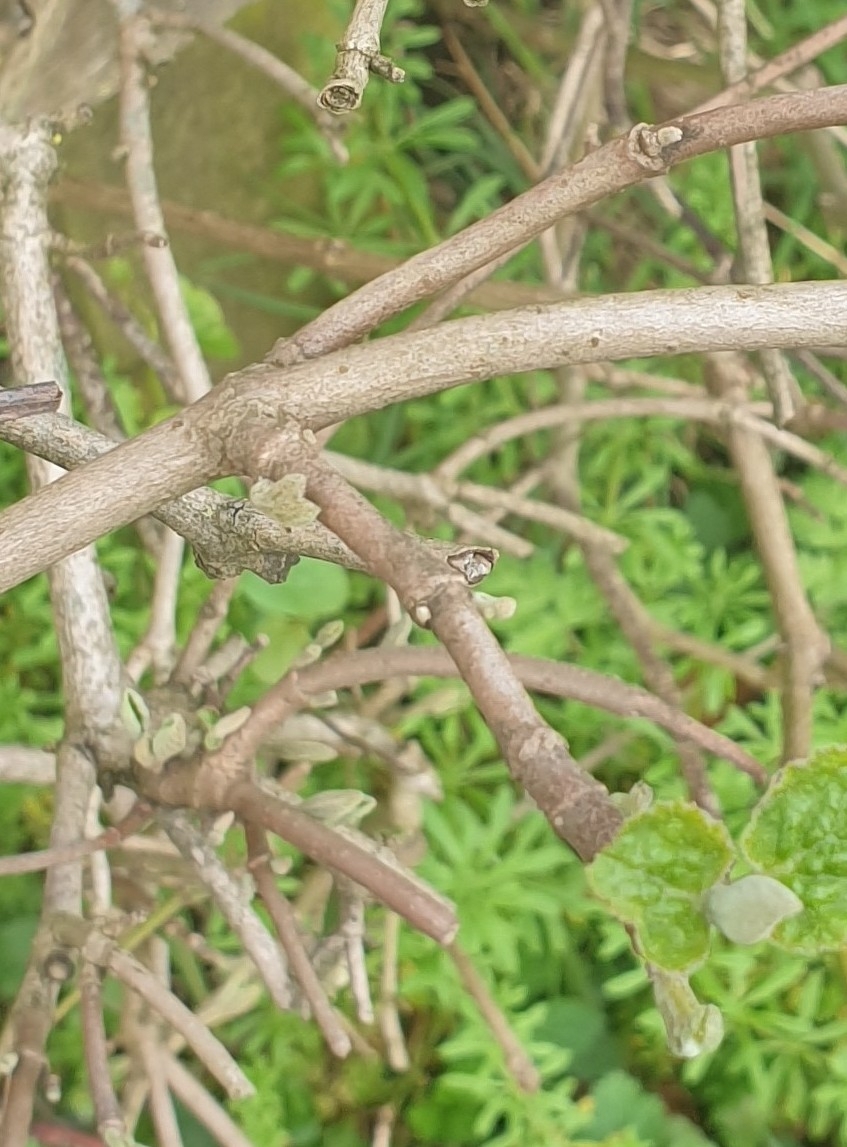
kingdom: Plantae
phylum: Tracheophyta
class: Magnoliopsida
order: Dipsacales
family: Viburnaceae
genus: Viburnum
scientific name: Viburnum lantana
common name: Wayfaring tree
